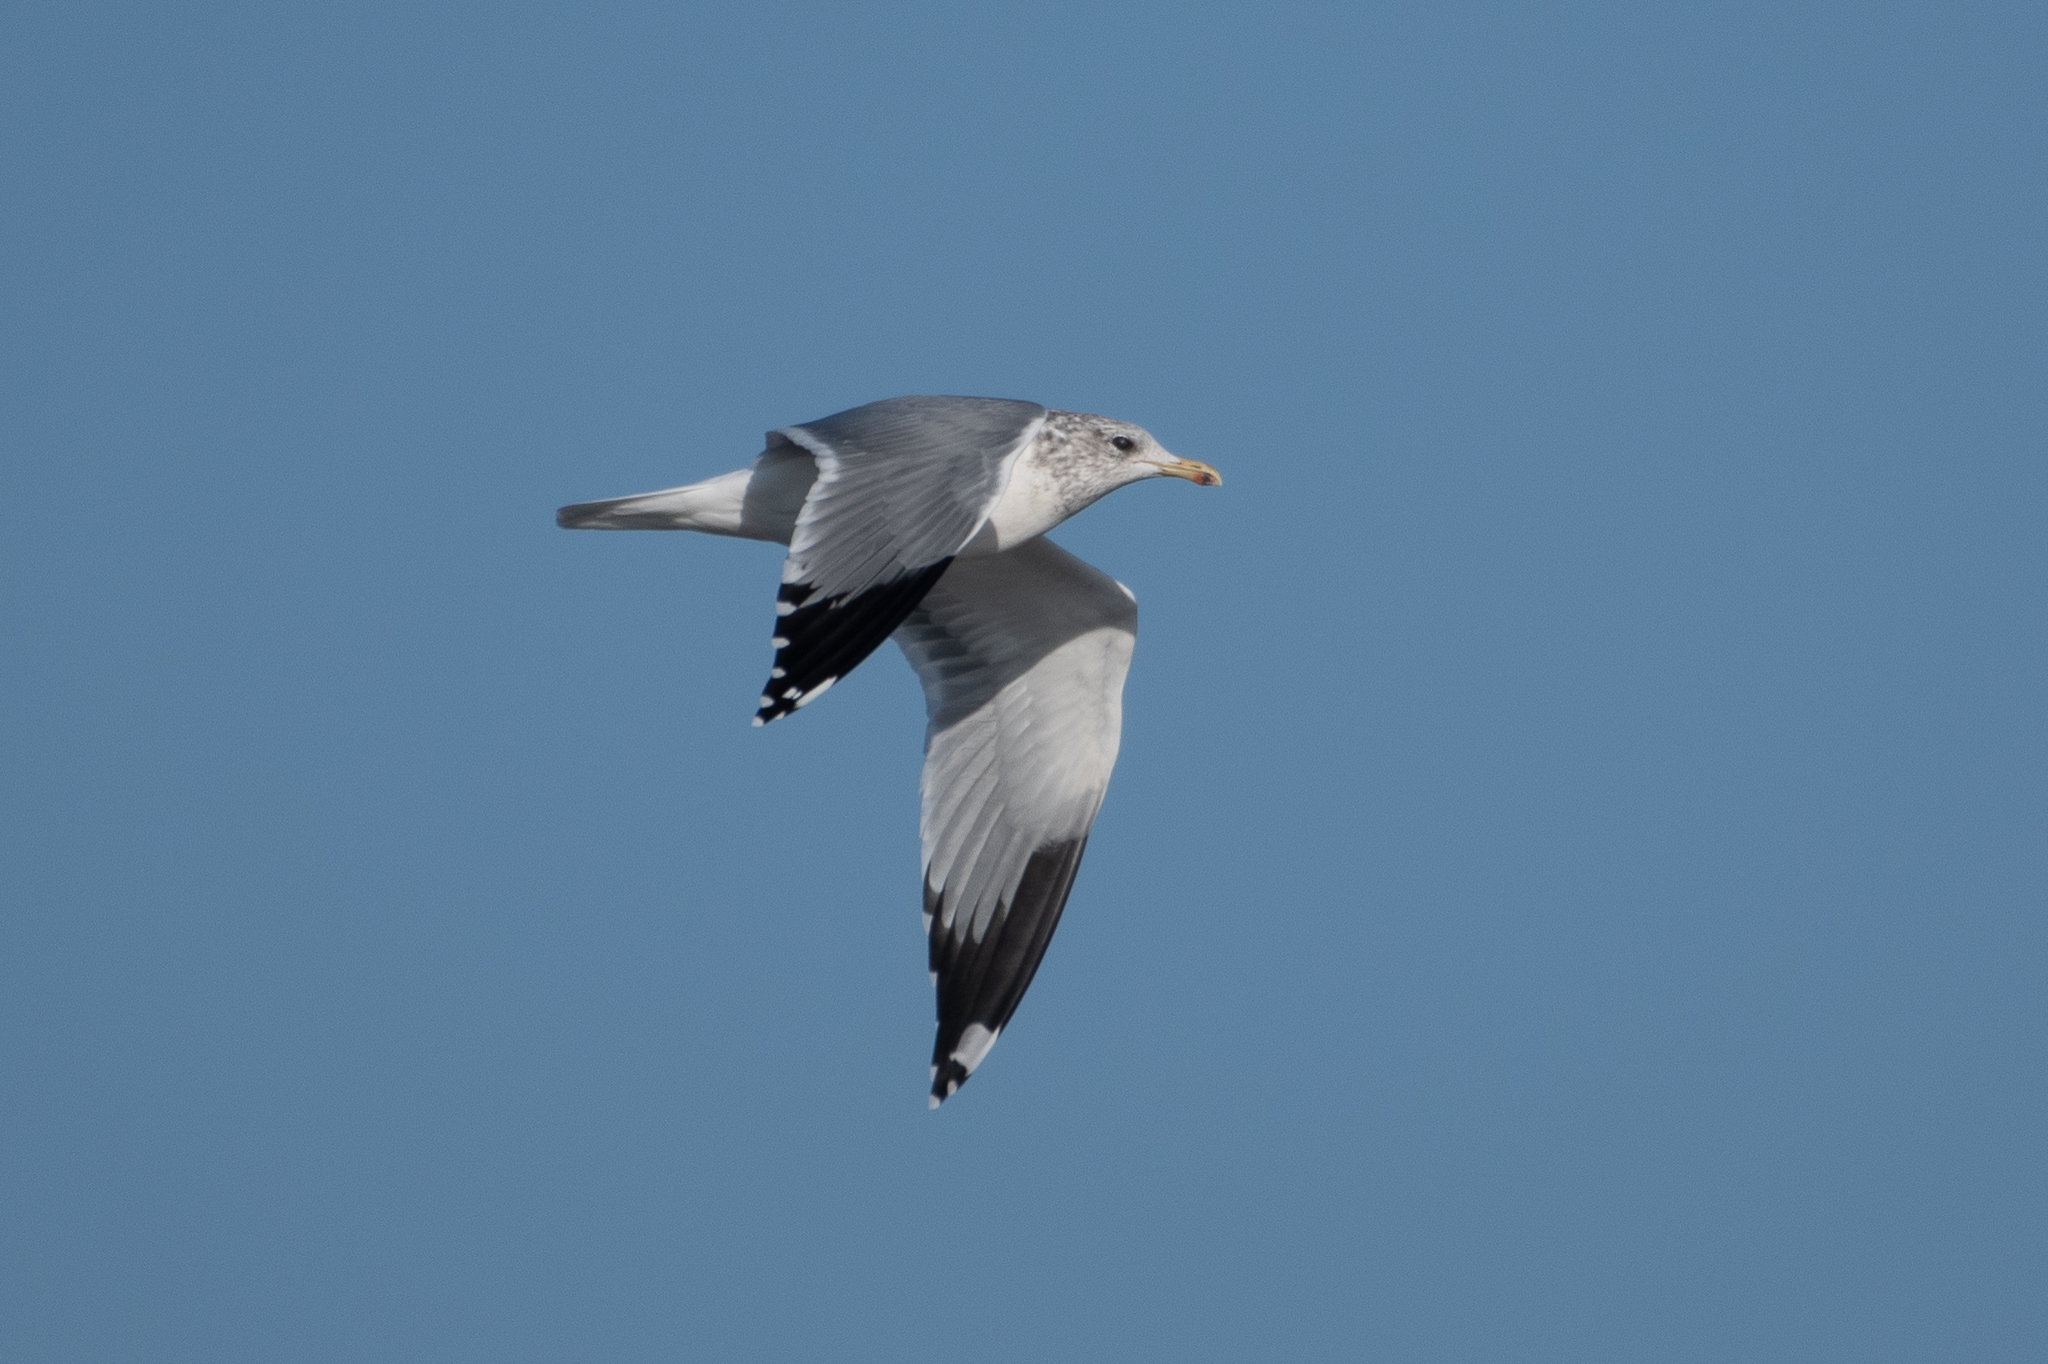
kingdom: Animalia
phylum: Chordata
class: Aves
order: Charadriiformes
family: Laridae
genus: Larus
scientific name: Larus californicus
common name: California gull
